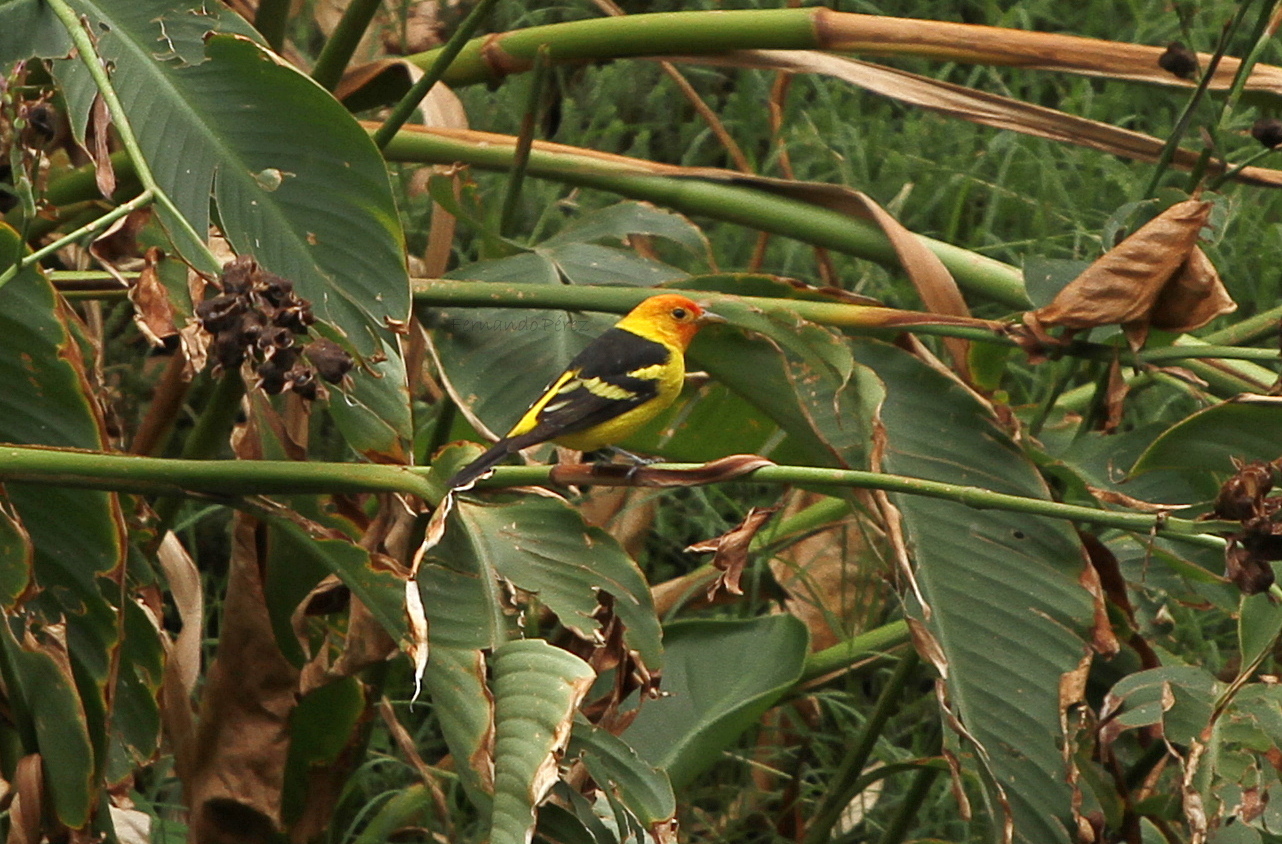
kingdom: Animalia
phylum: Chordata
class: Aves
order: Passeriformes
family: Cardinalidae
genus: Piranga
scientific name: Piranga ludoviciana
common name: Western tanager
